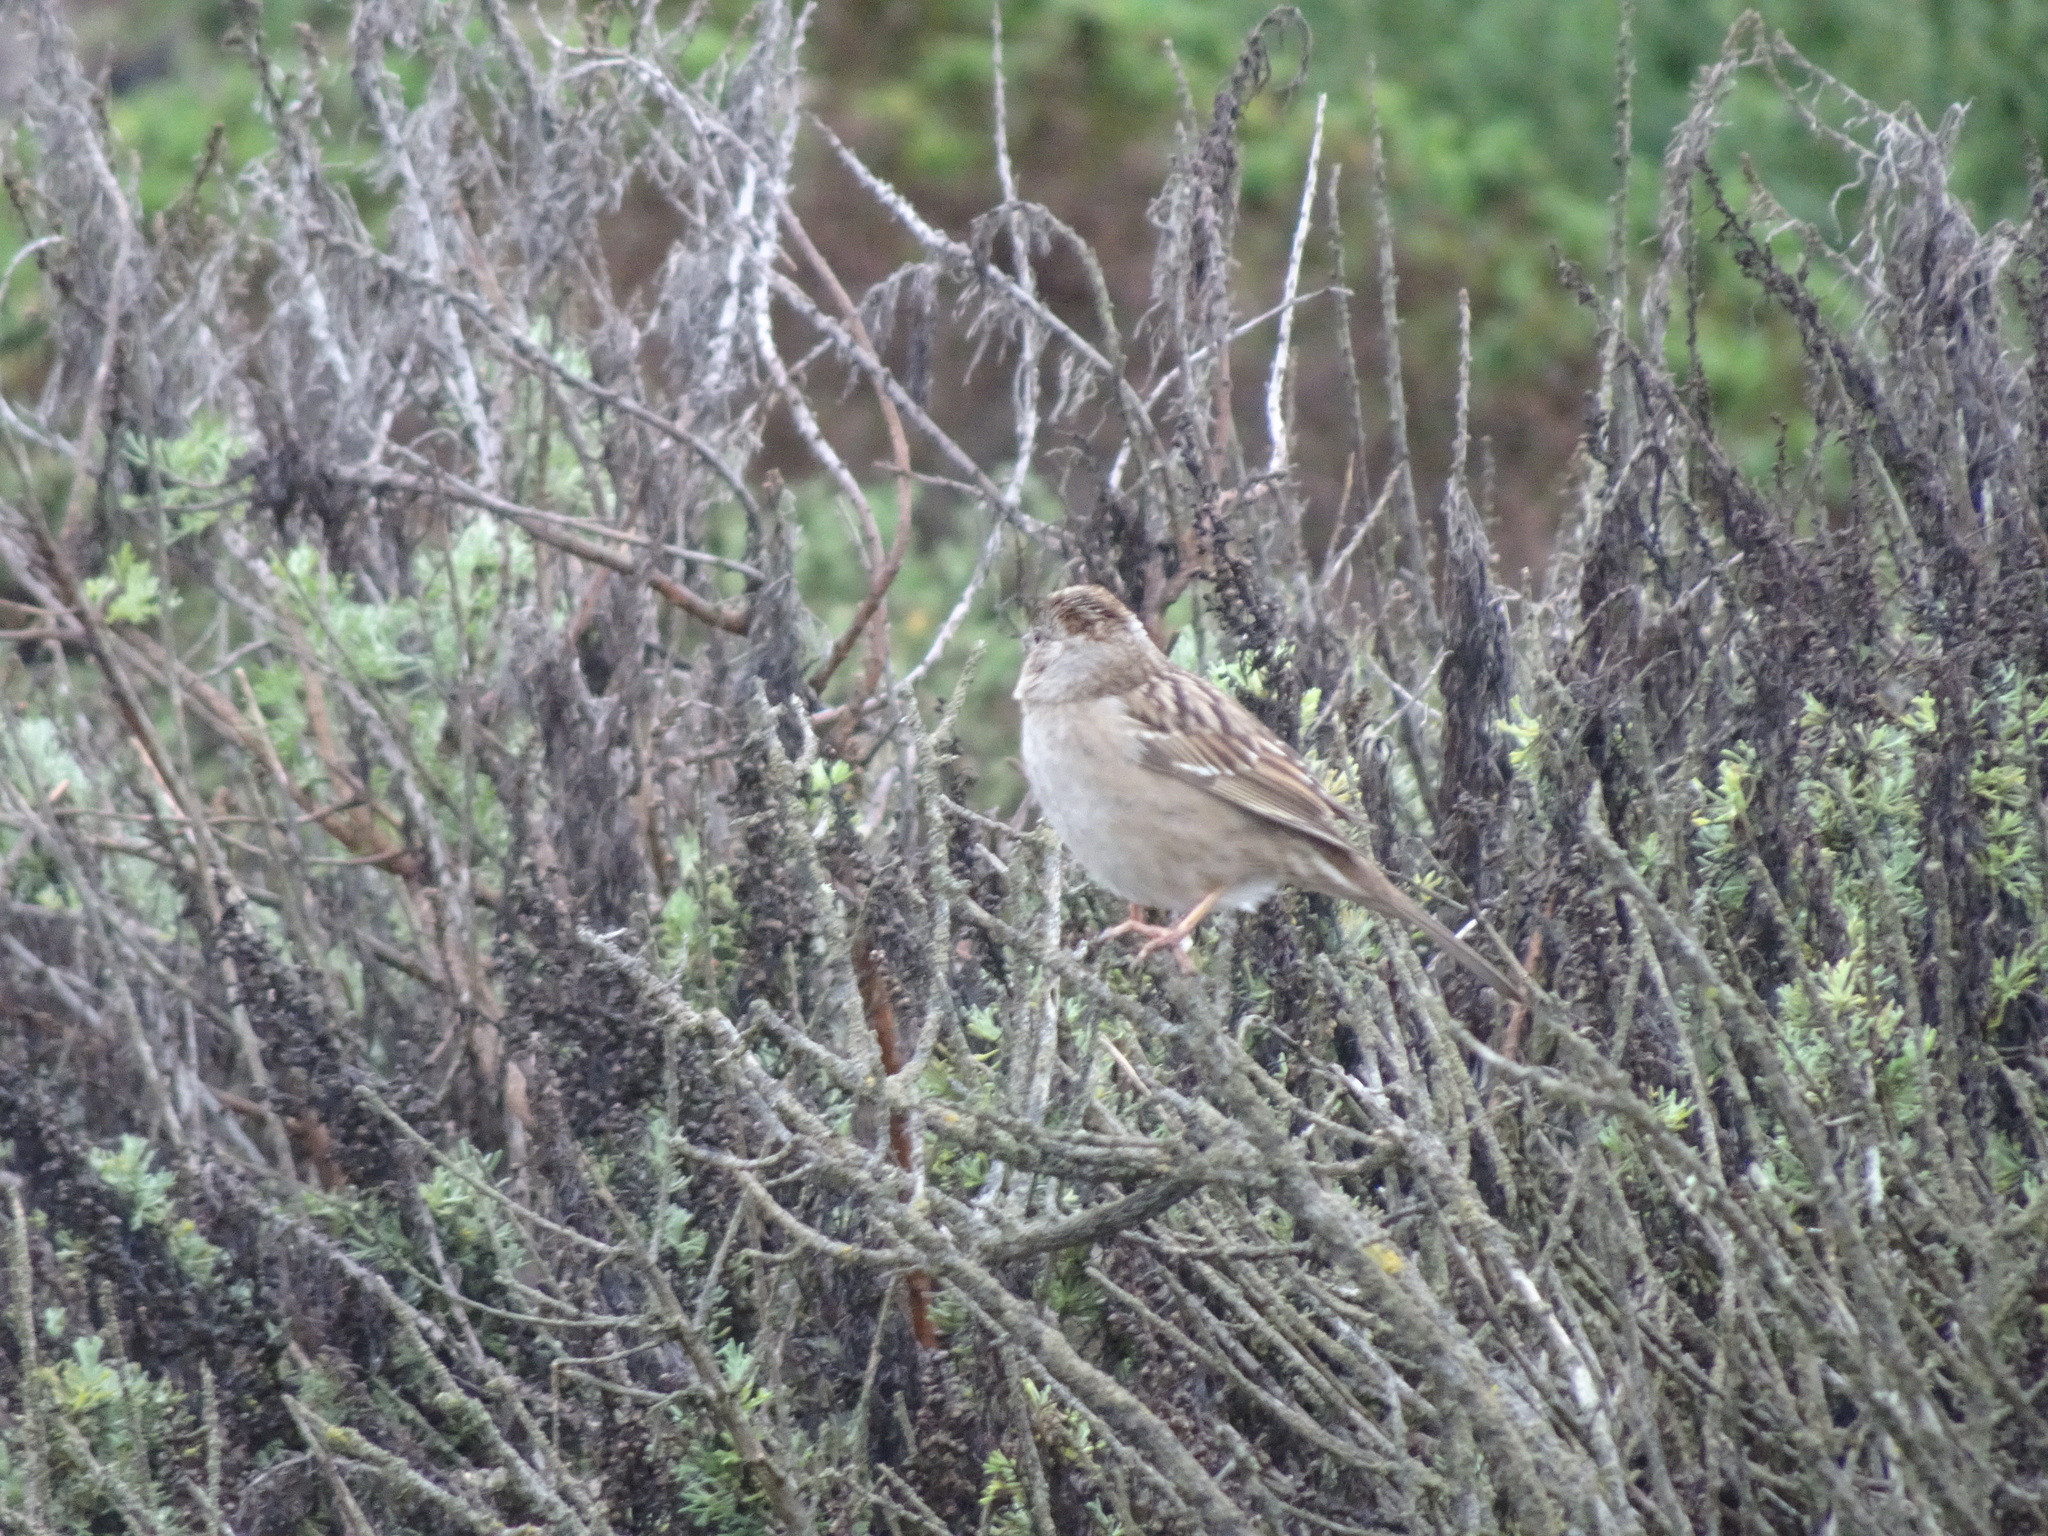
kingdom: Animalia
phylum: Chordata
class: Aves
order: Passeriformes
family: Passerellidae
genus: Zonotrichia
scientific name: Zonotrichia atricapilla
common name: Golden-crowned sparrow
